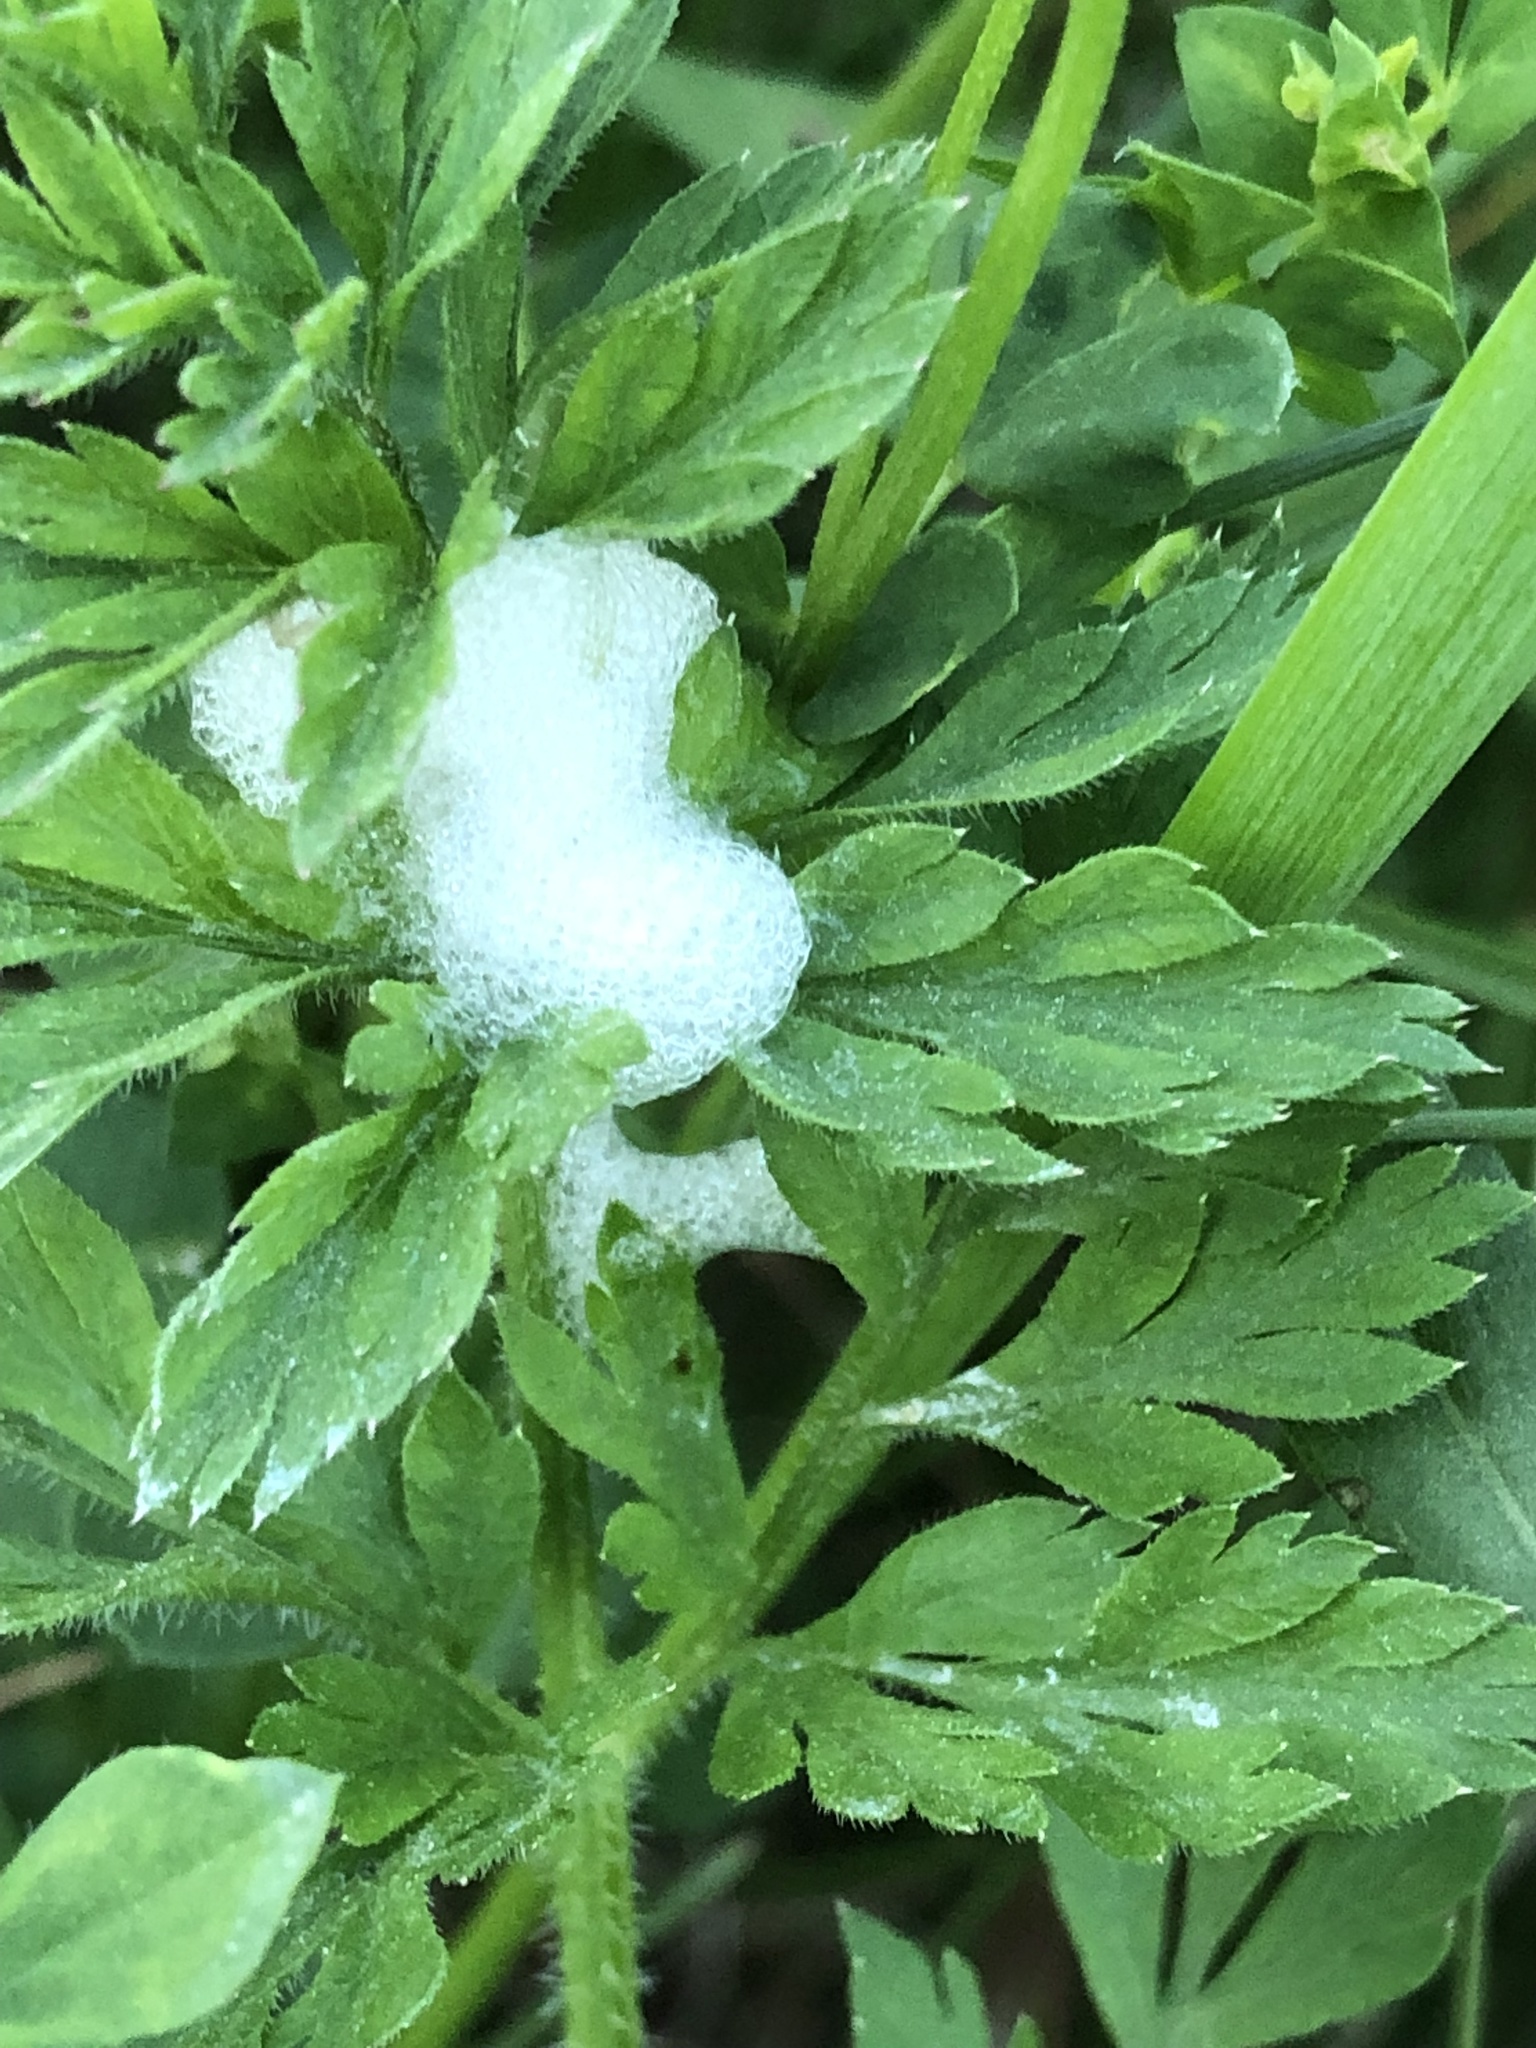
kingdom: Animalia
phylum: Arthropoda
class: Insecta
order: Hemiptera
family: Aphrophoridae
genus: Philaenus
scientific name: Philaenus spumarius
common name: Meadow spittlebug
